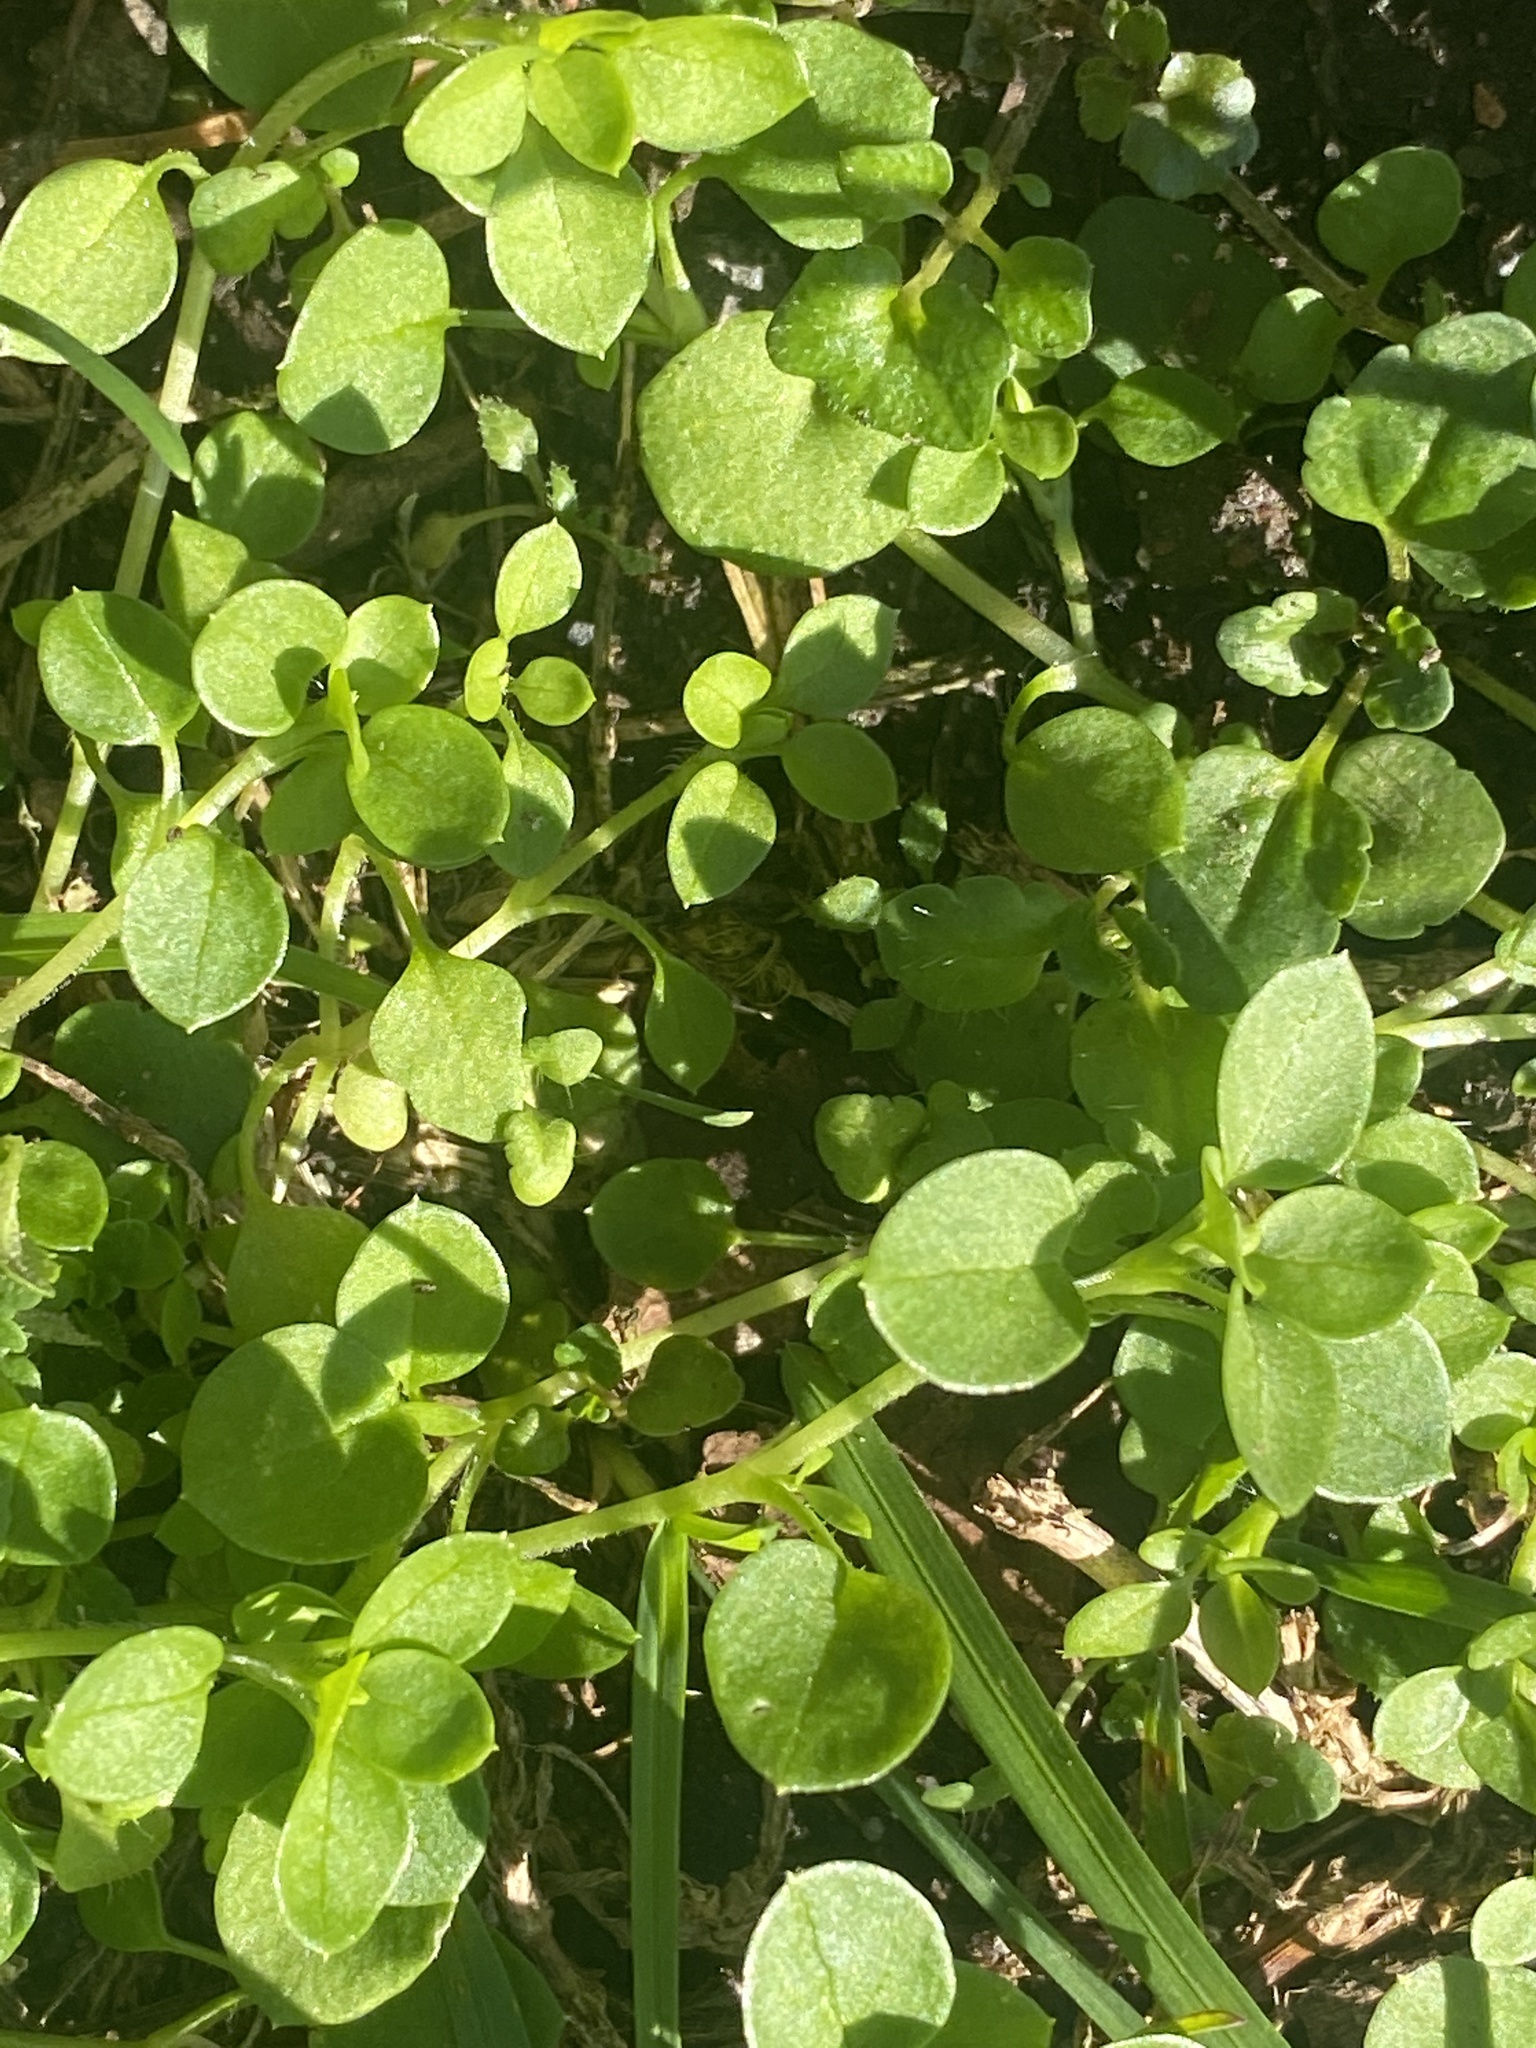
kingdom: Plantae
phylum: Tracheophyta
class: Magnoliopsida
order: Caryophyllales
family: Caryophyllaceae
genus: Stellaria
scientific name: Stellaria media
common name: Common chickweed
